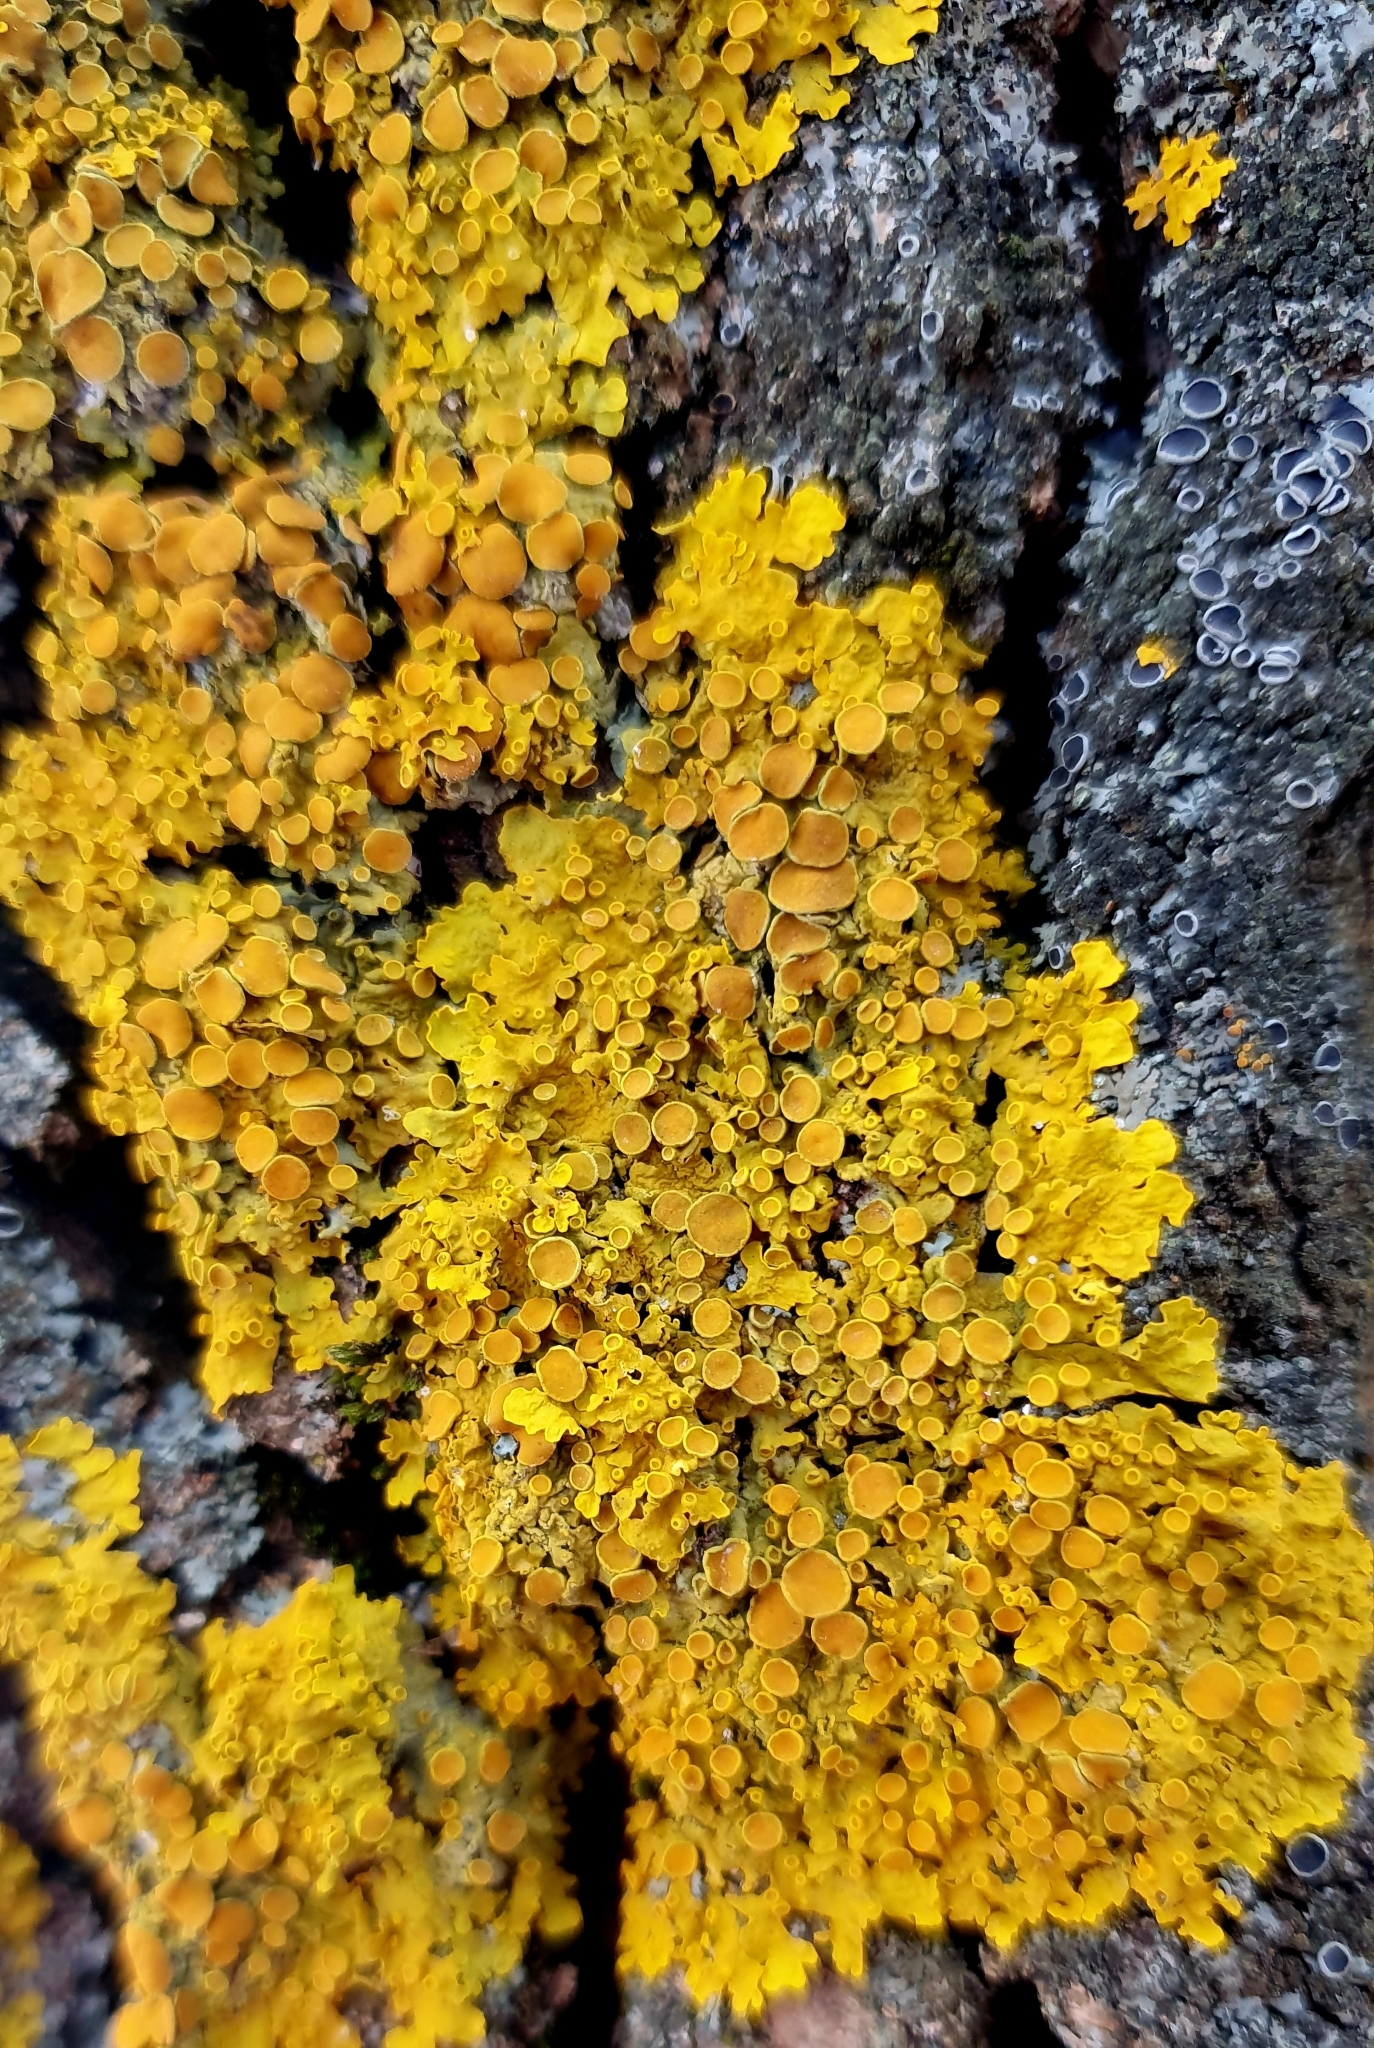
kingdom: Fungi
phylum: Ascomycota
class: Lecanoromycetes
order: Teloschistales
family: Teloschistaceae
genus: Xanthoria
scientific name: Xanthoria parietina
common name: Common orange lichen
